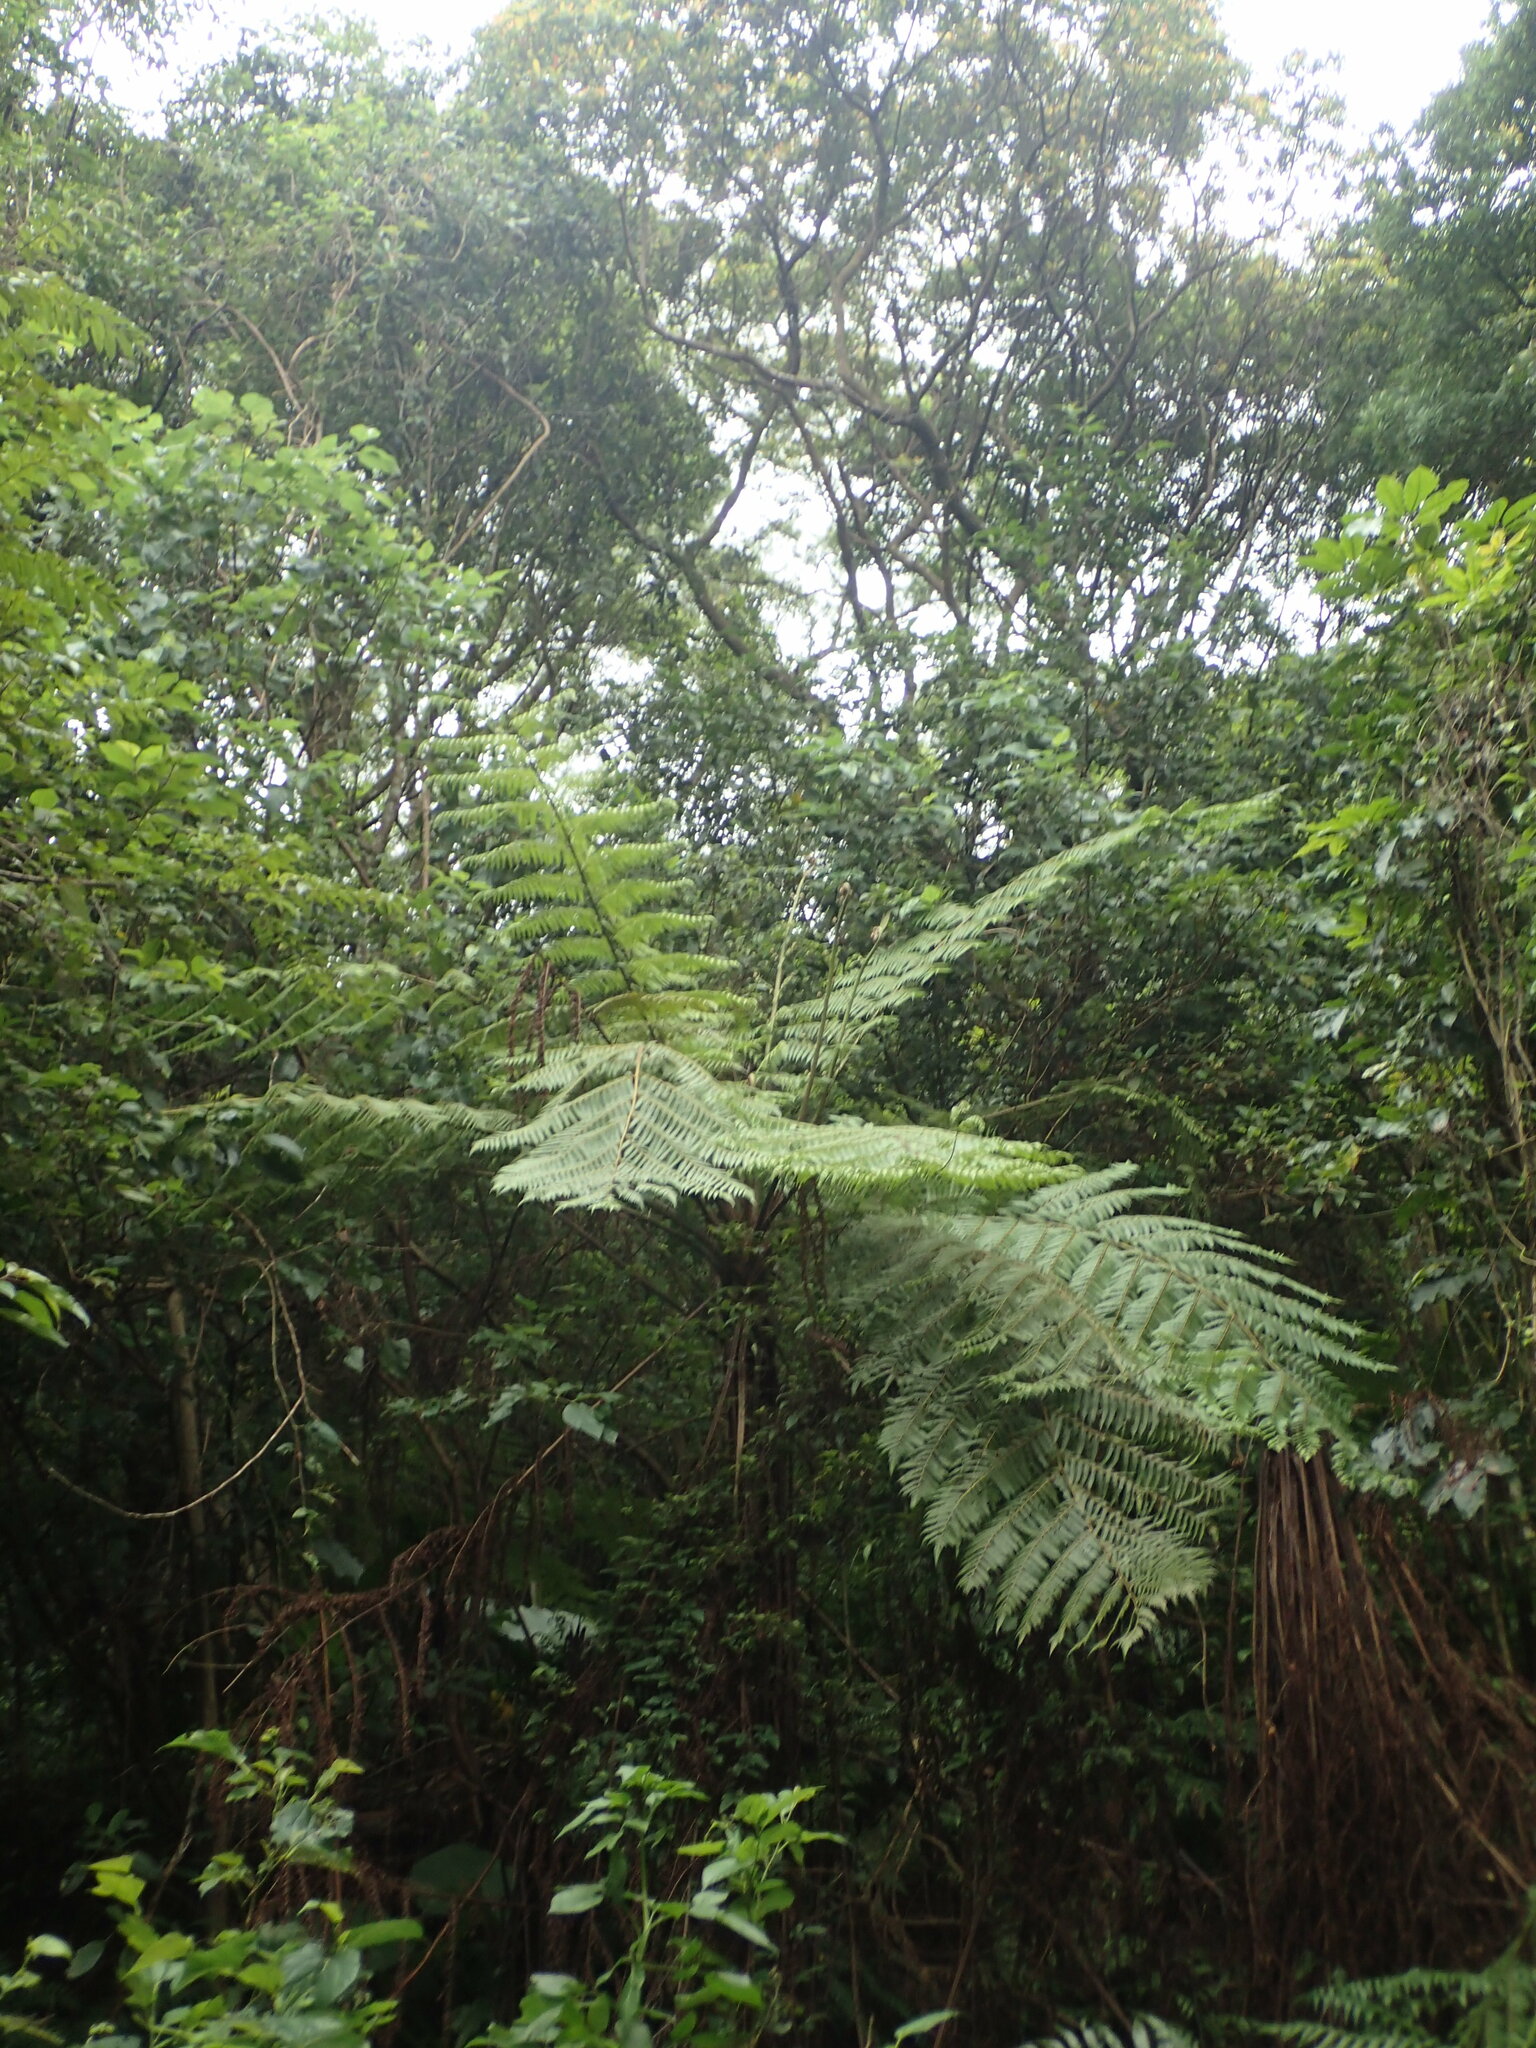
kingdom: Plantae
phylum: Tracheophyta
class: Polypodiopsida
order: Cyatheales
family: Cyatheaceae
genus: Alsophila
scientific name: Alsophila spinulosa
